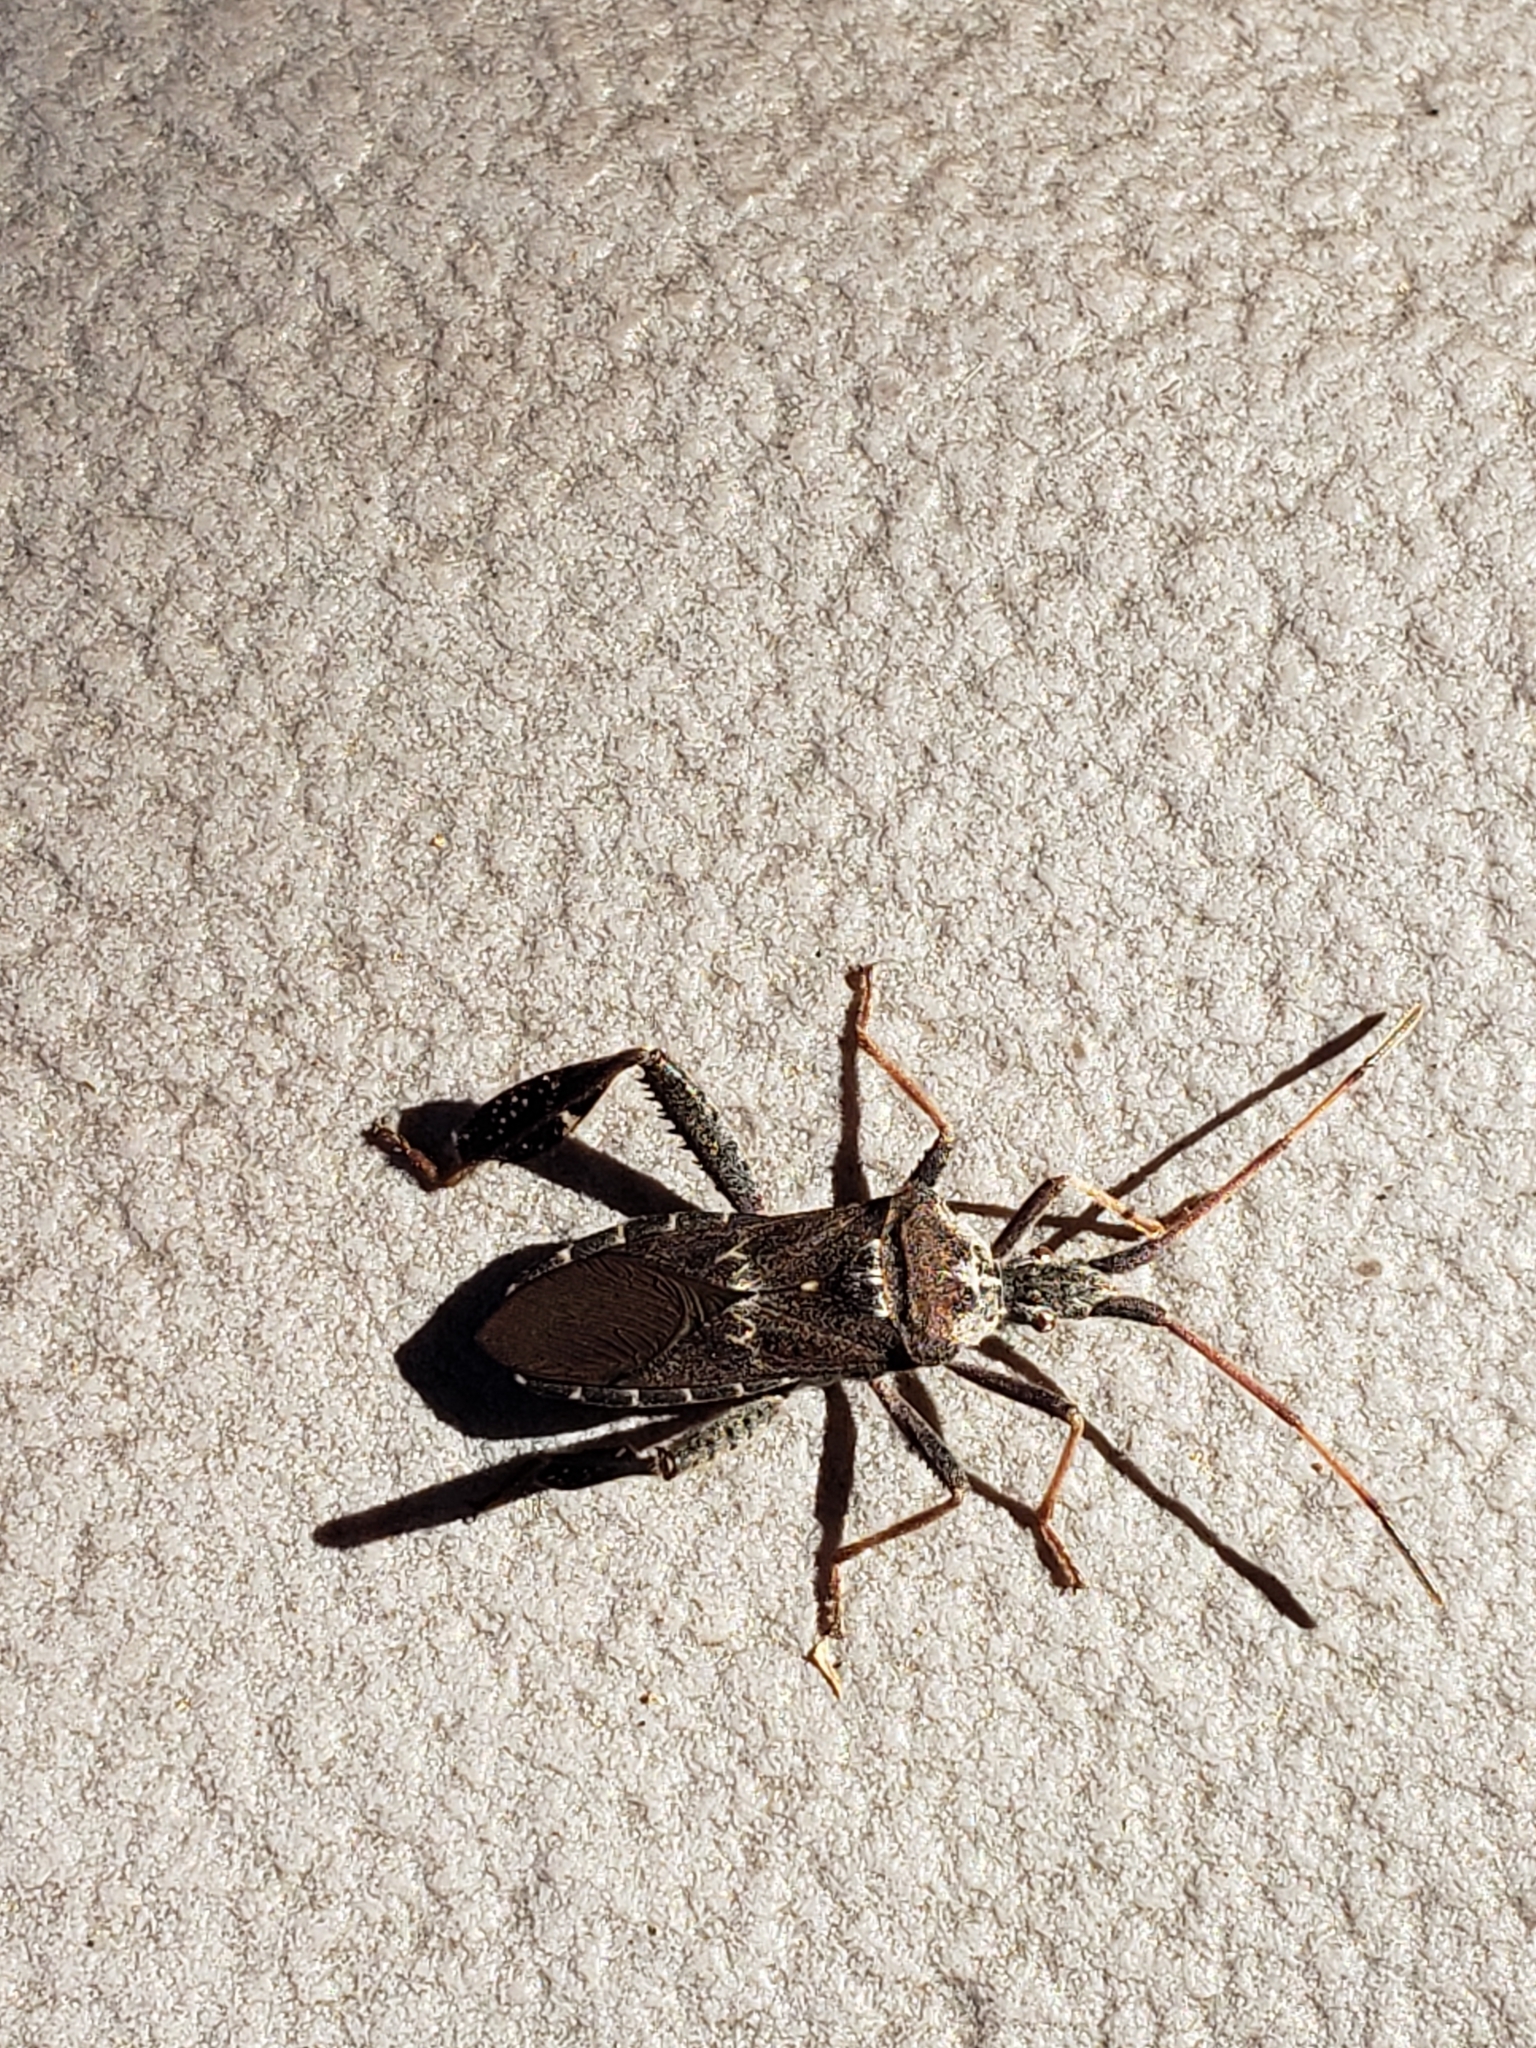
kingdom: Animalia
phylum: Arthropoda
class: Insecta
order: Hemiptera
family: Coreidae
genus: Leptoglossus
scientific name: Leptoglossus corculus
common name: Southern pine seed bug
